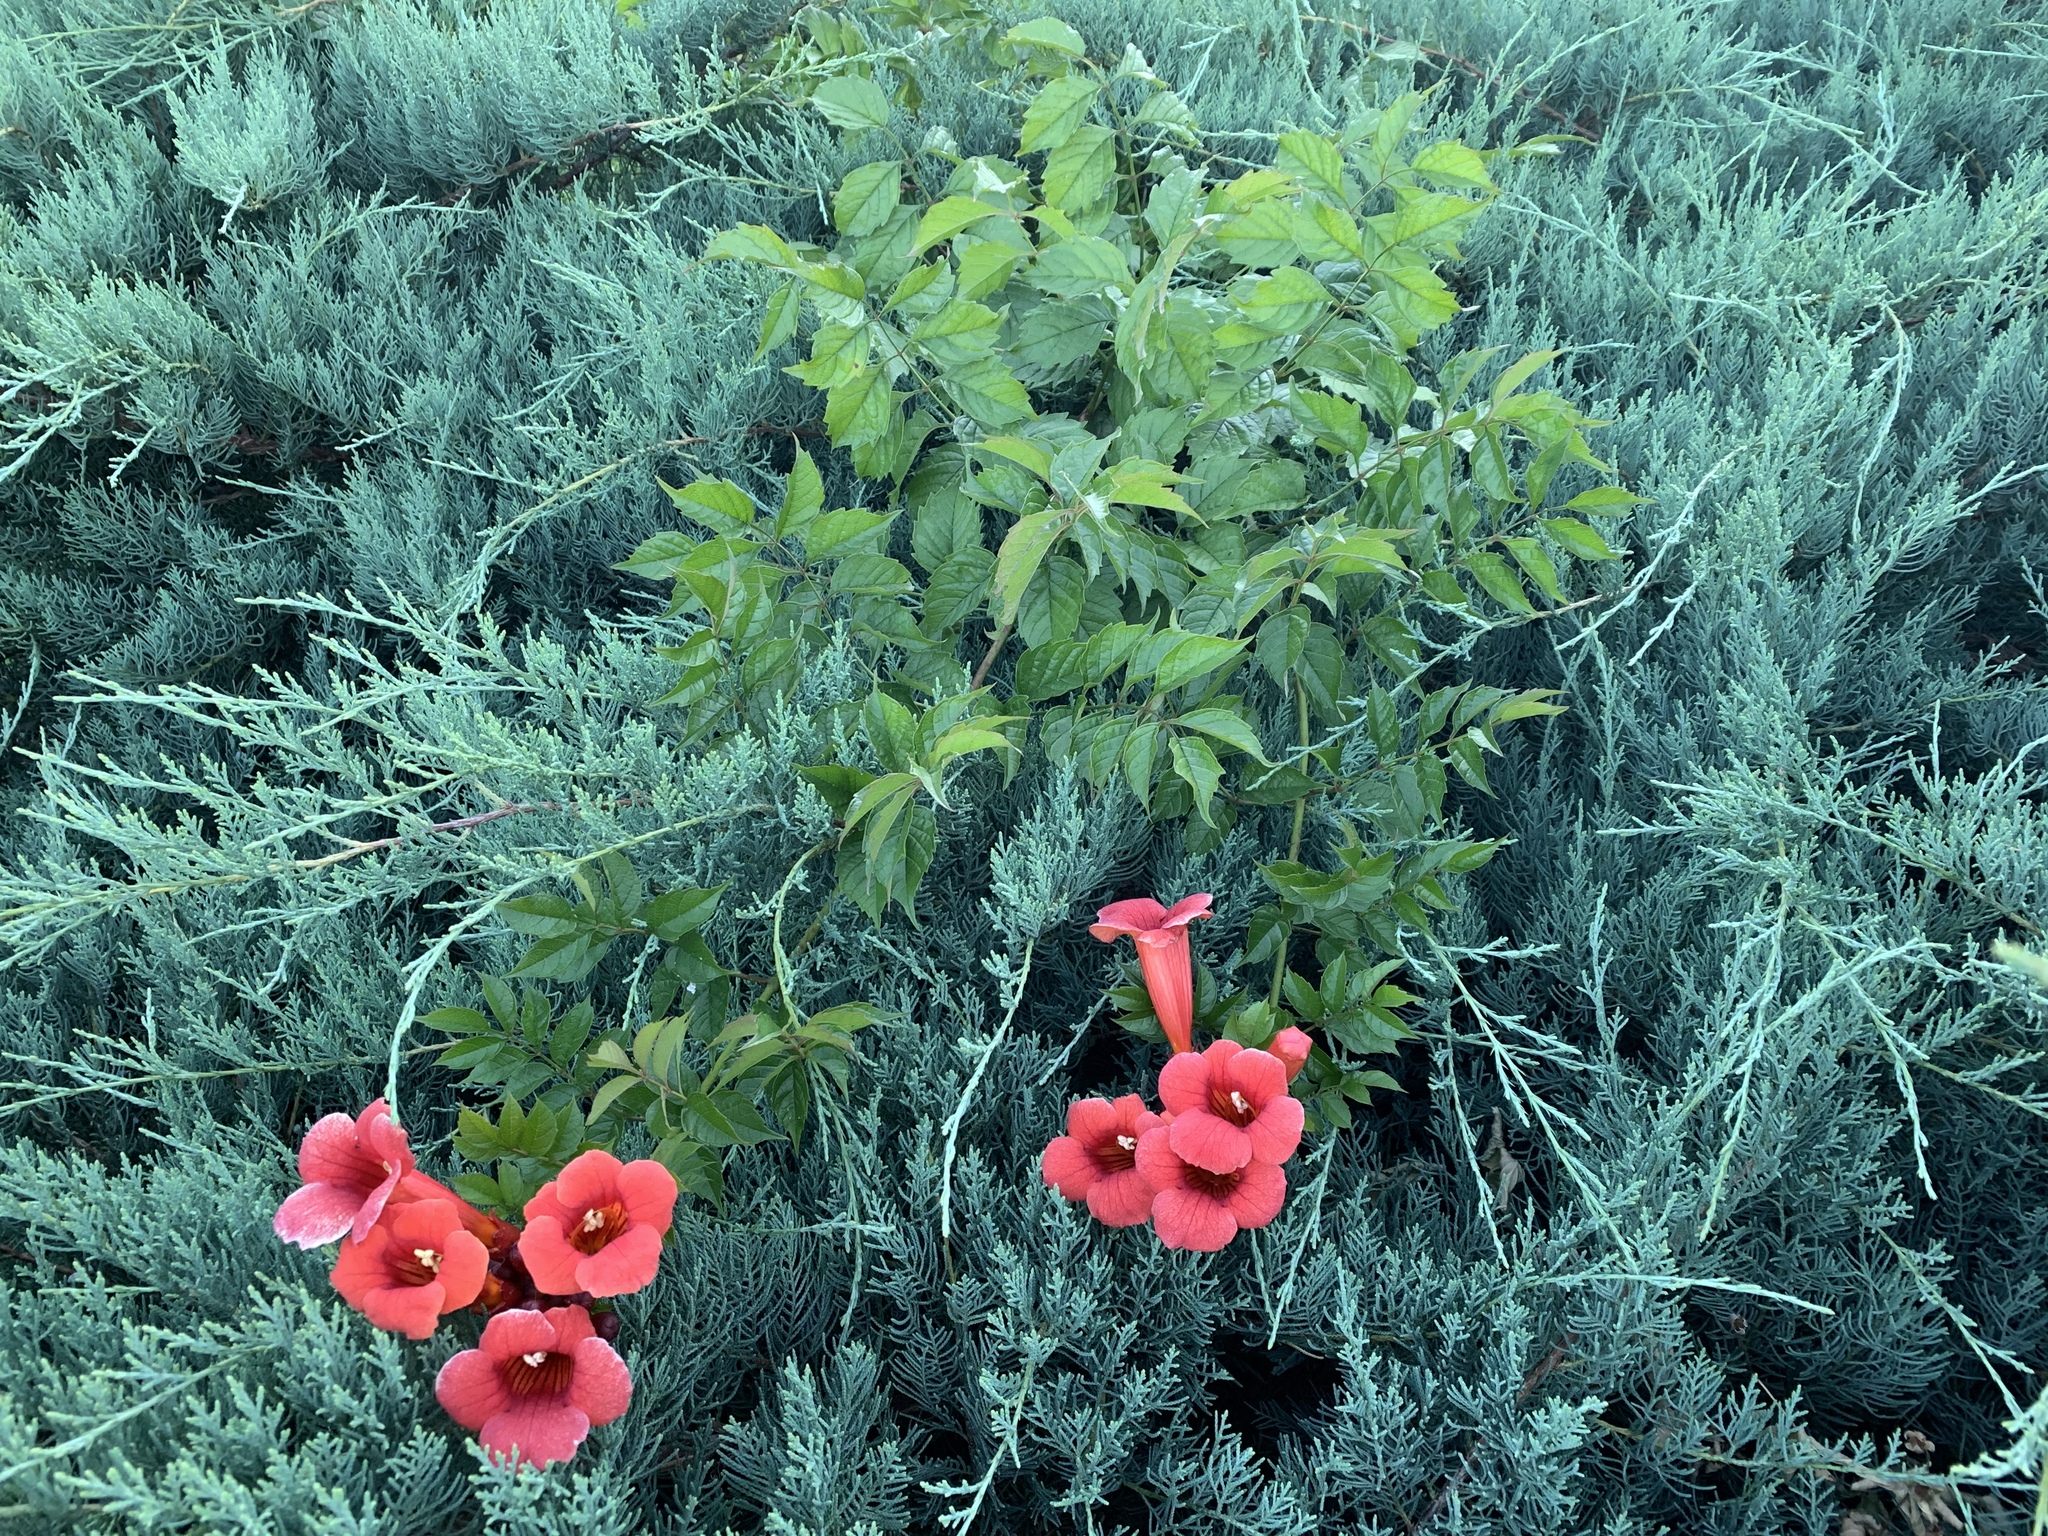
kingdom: Plantae
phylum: Tracheophyta
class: Magnoliopsida
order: Lamiales
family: Bignoniaceae
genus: Campsis
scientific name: Campsis radicans
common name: Trumpet-creeper
